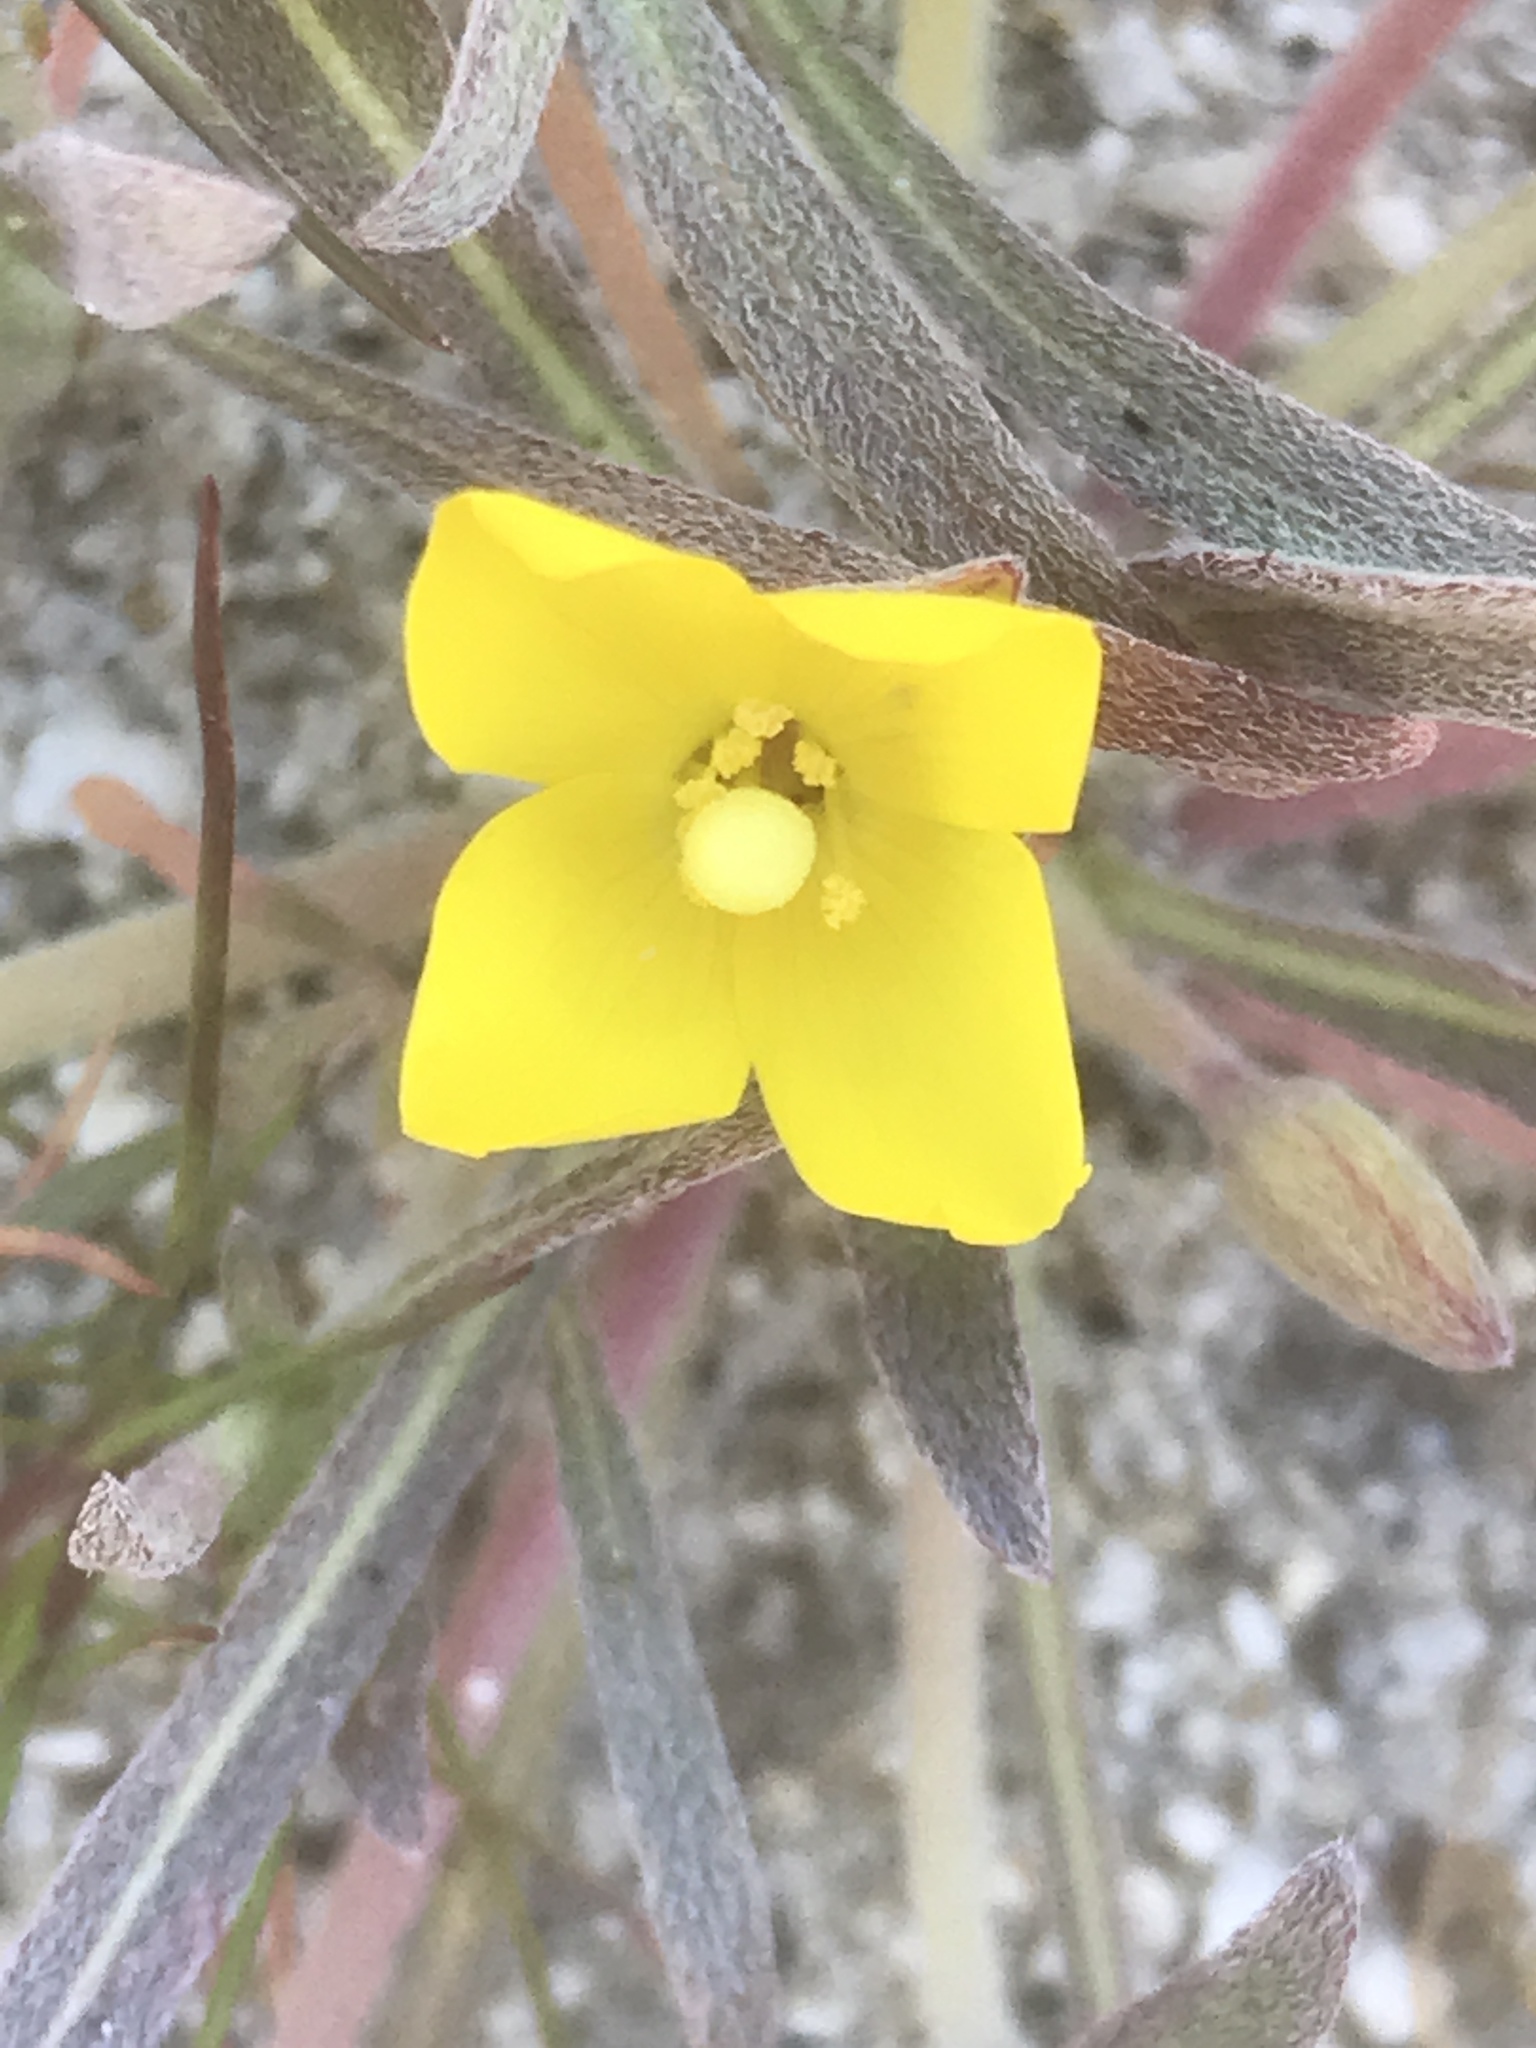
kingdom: Plantae
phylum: Tracheophyta
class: Magnoliopsida
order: Myrtales
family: Onagraceae
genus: Camissoniopsis
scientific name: Camissoniopsis pallida
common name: Paleyellow suncup
